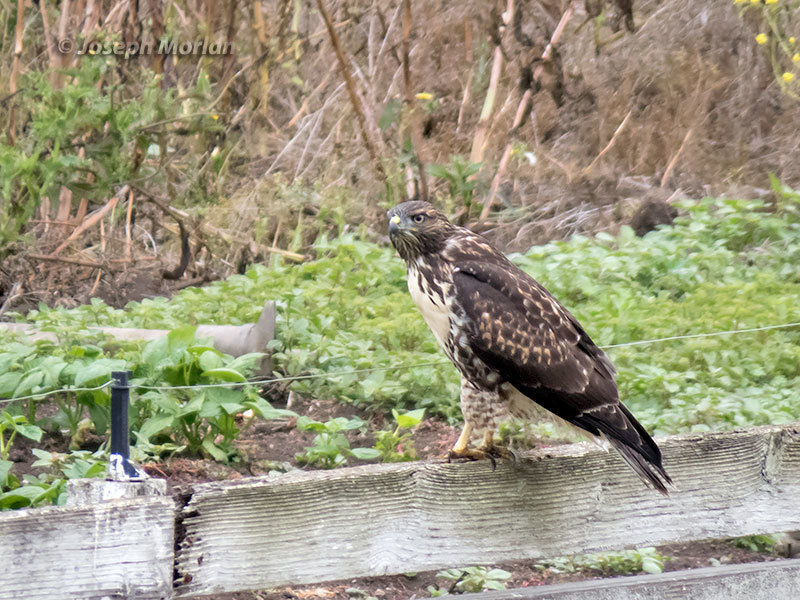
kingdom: Animalia
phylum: Chordata
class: Aves
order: Accipitriformes
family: Accipitridae
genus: Buteo
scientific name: Buteo jamaicensis
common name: Red-tailed hawk
